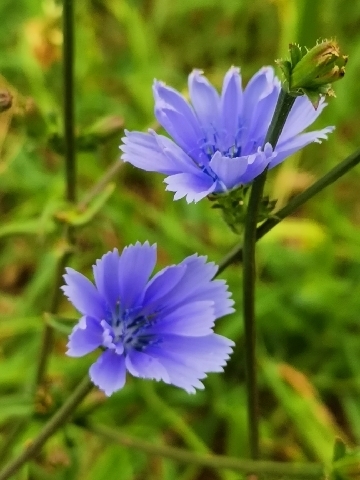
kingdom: Plantae
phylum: Tracheophyta
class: Magnoliopsida
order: Asterales
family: Asteraceae
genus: Cichorium
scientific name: Cichorium intybus
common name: Chicory
